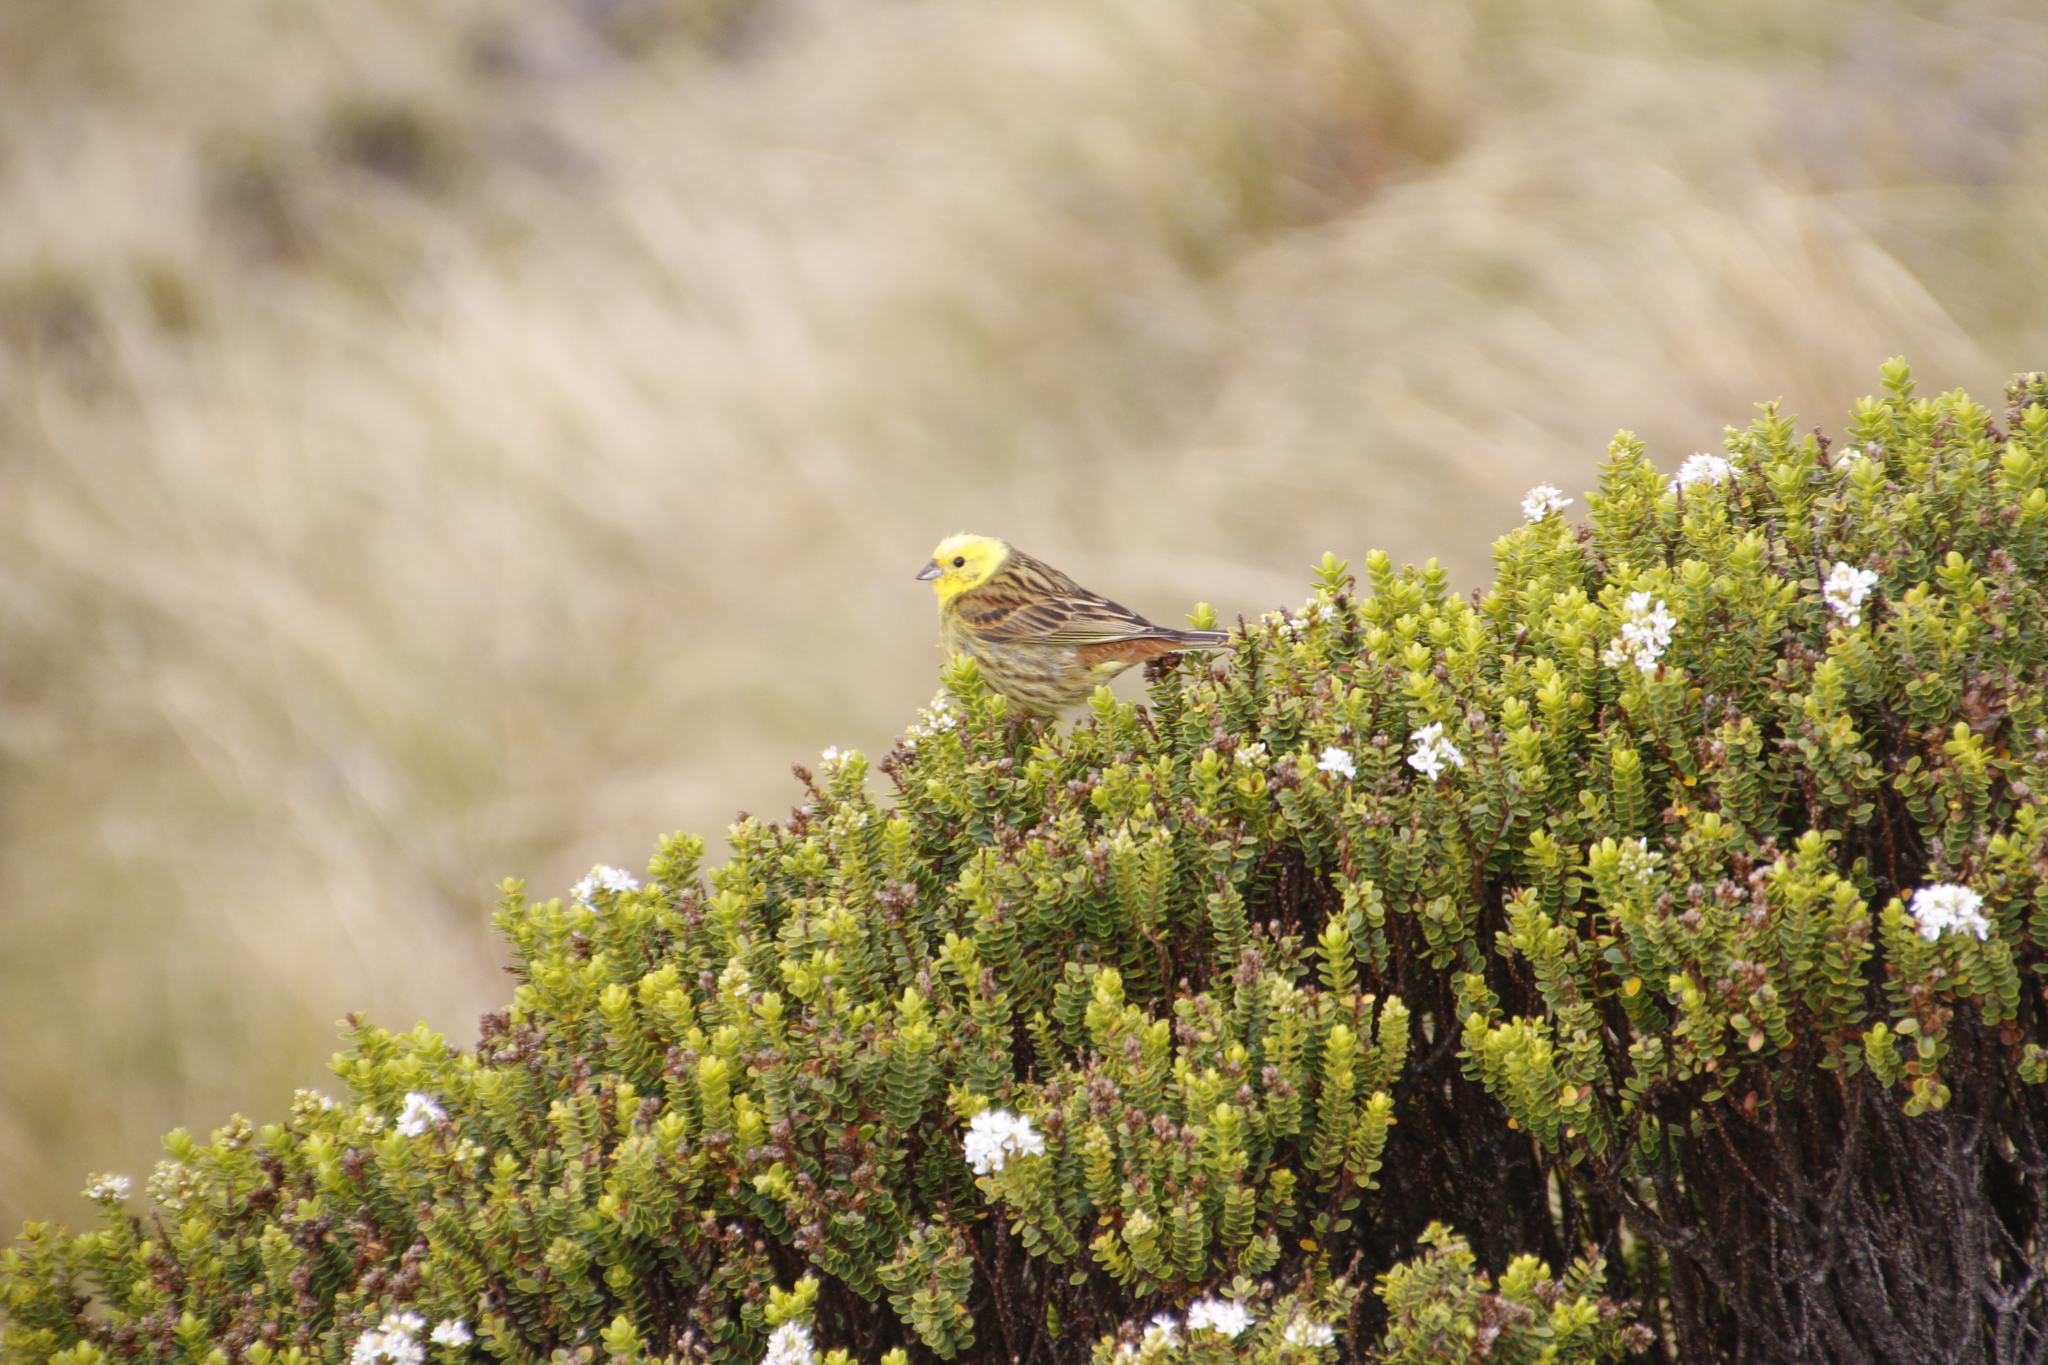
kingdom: Animalia
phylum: Chordata
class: Aves
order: Passeriformes
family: Emberizidae
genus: Emberiza
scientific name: Emberiza citrinella
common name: Yellowhammer
